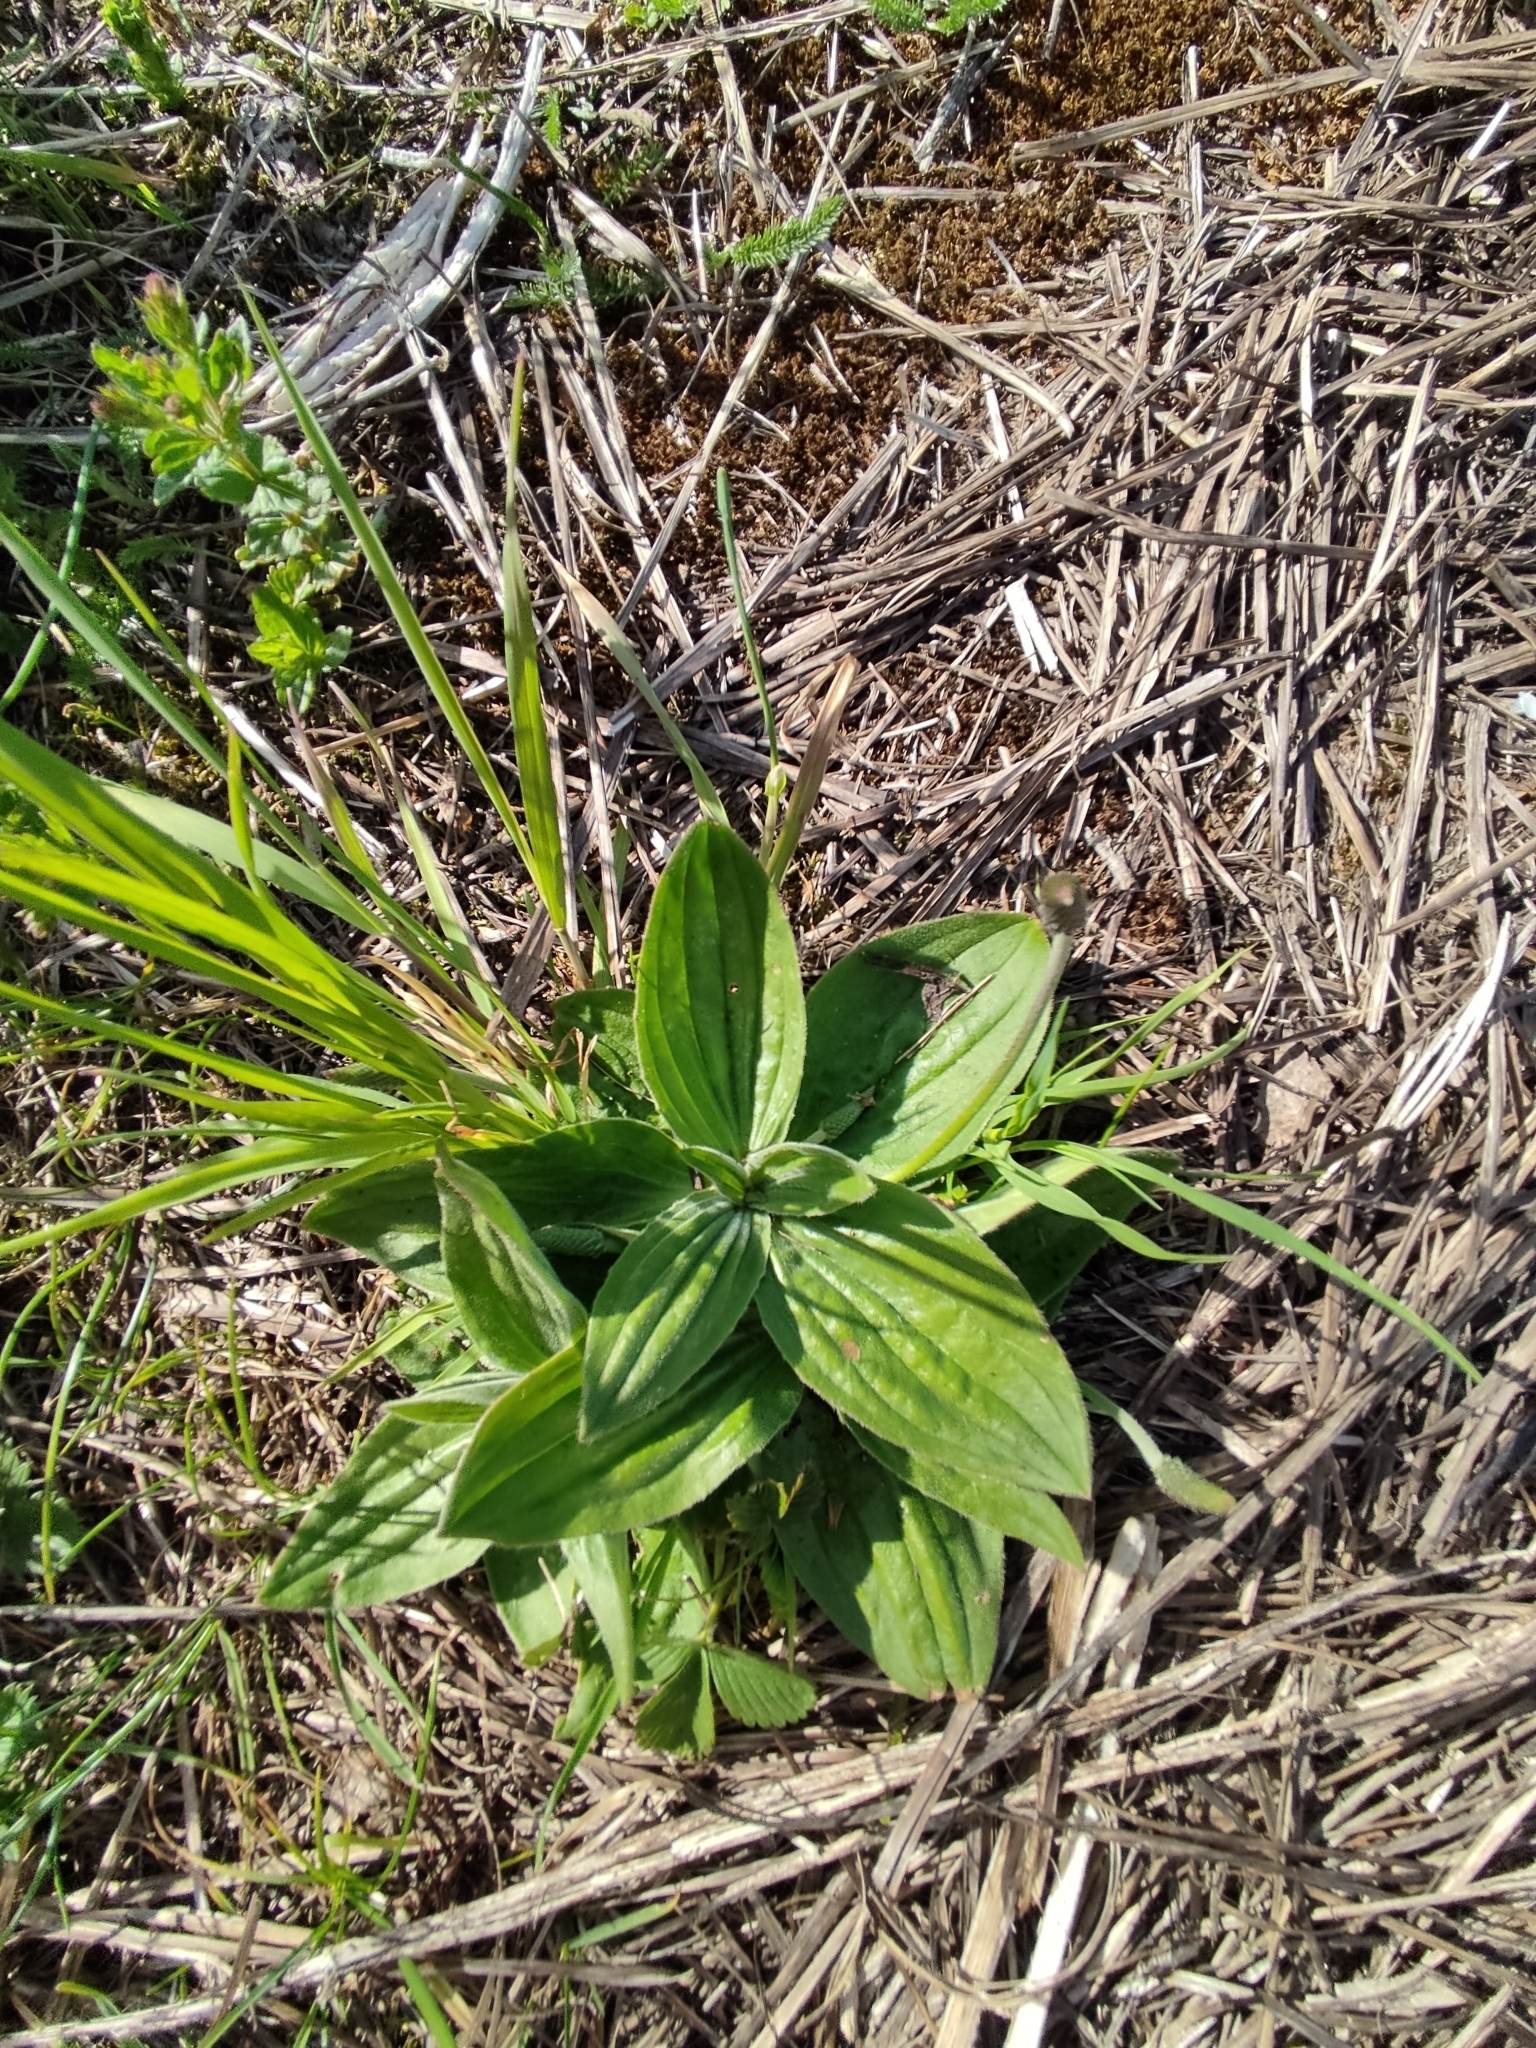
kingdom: Plantae
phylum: Tracheophyta
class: Magnoliopsida
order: Lamiales
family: Plantaginaceae
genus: Plantago
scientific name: Plantago media
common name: Hoary plantain
